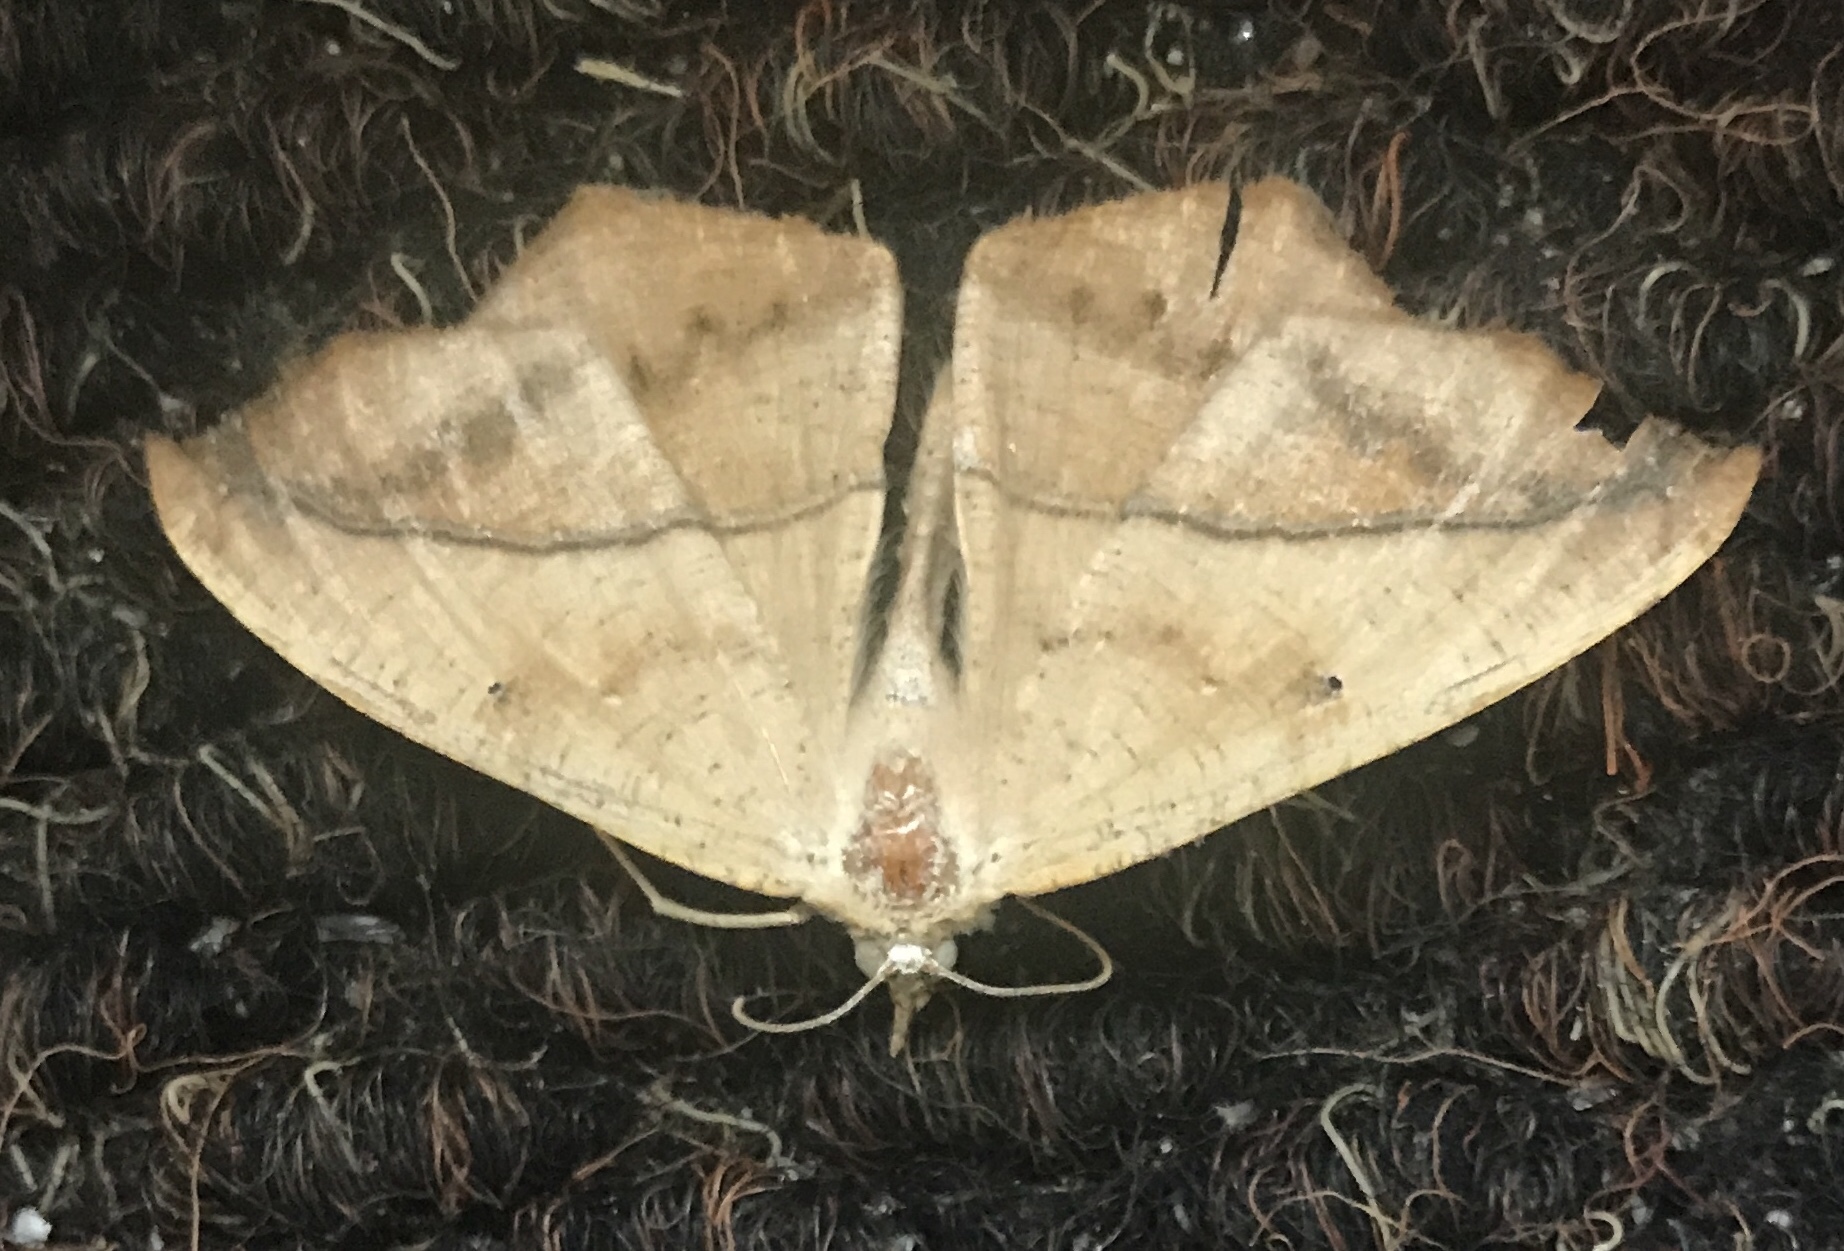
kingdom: Animalia
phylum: Arthropoda
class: Insecta
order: Lepidoptera
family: Geometridae
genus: Prochoerodes
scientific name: Prochoerodes lineola
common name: Large maple spanworm
